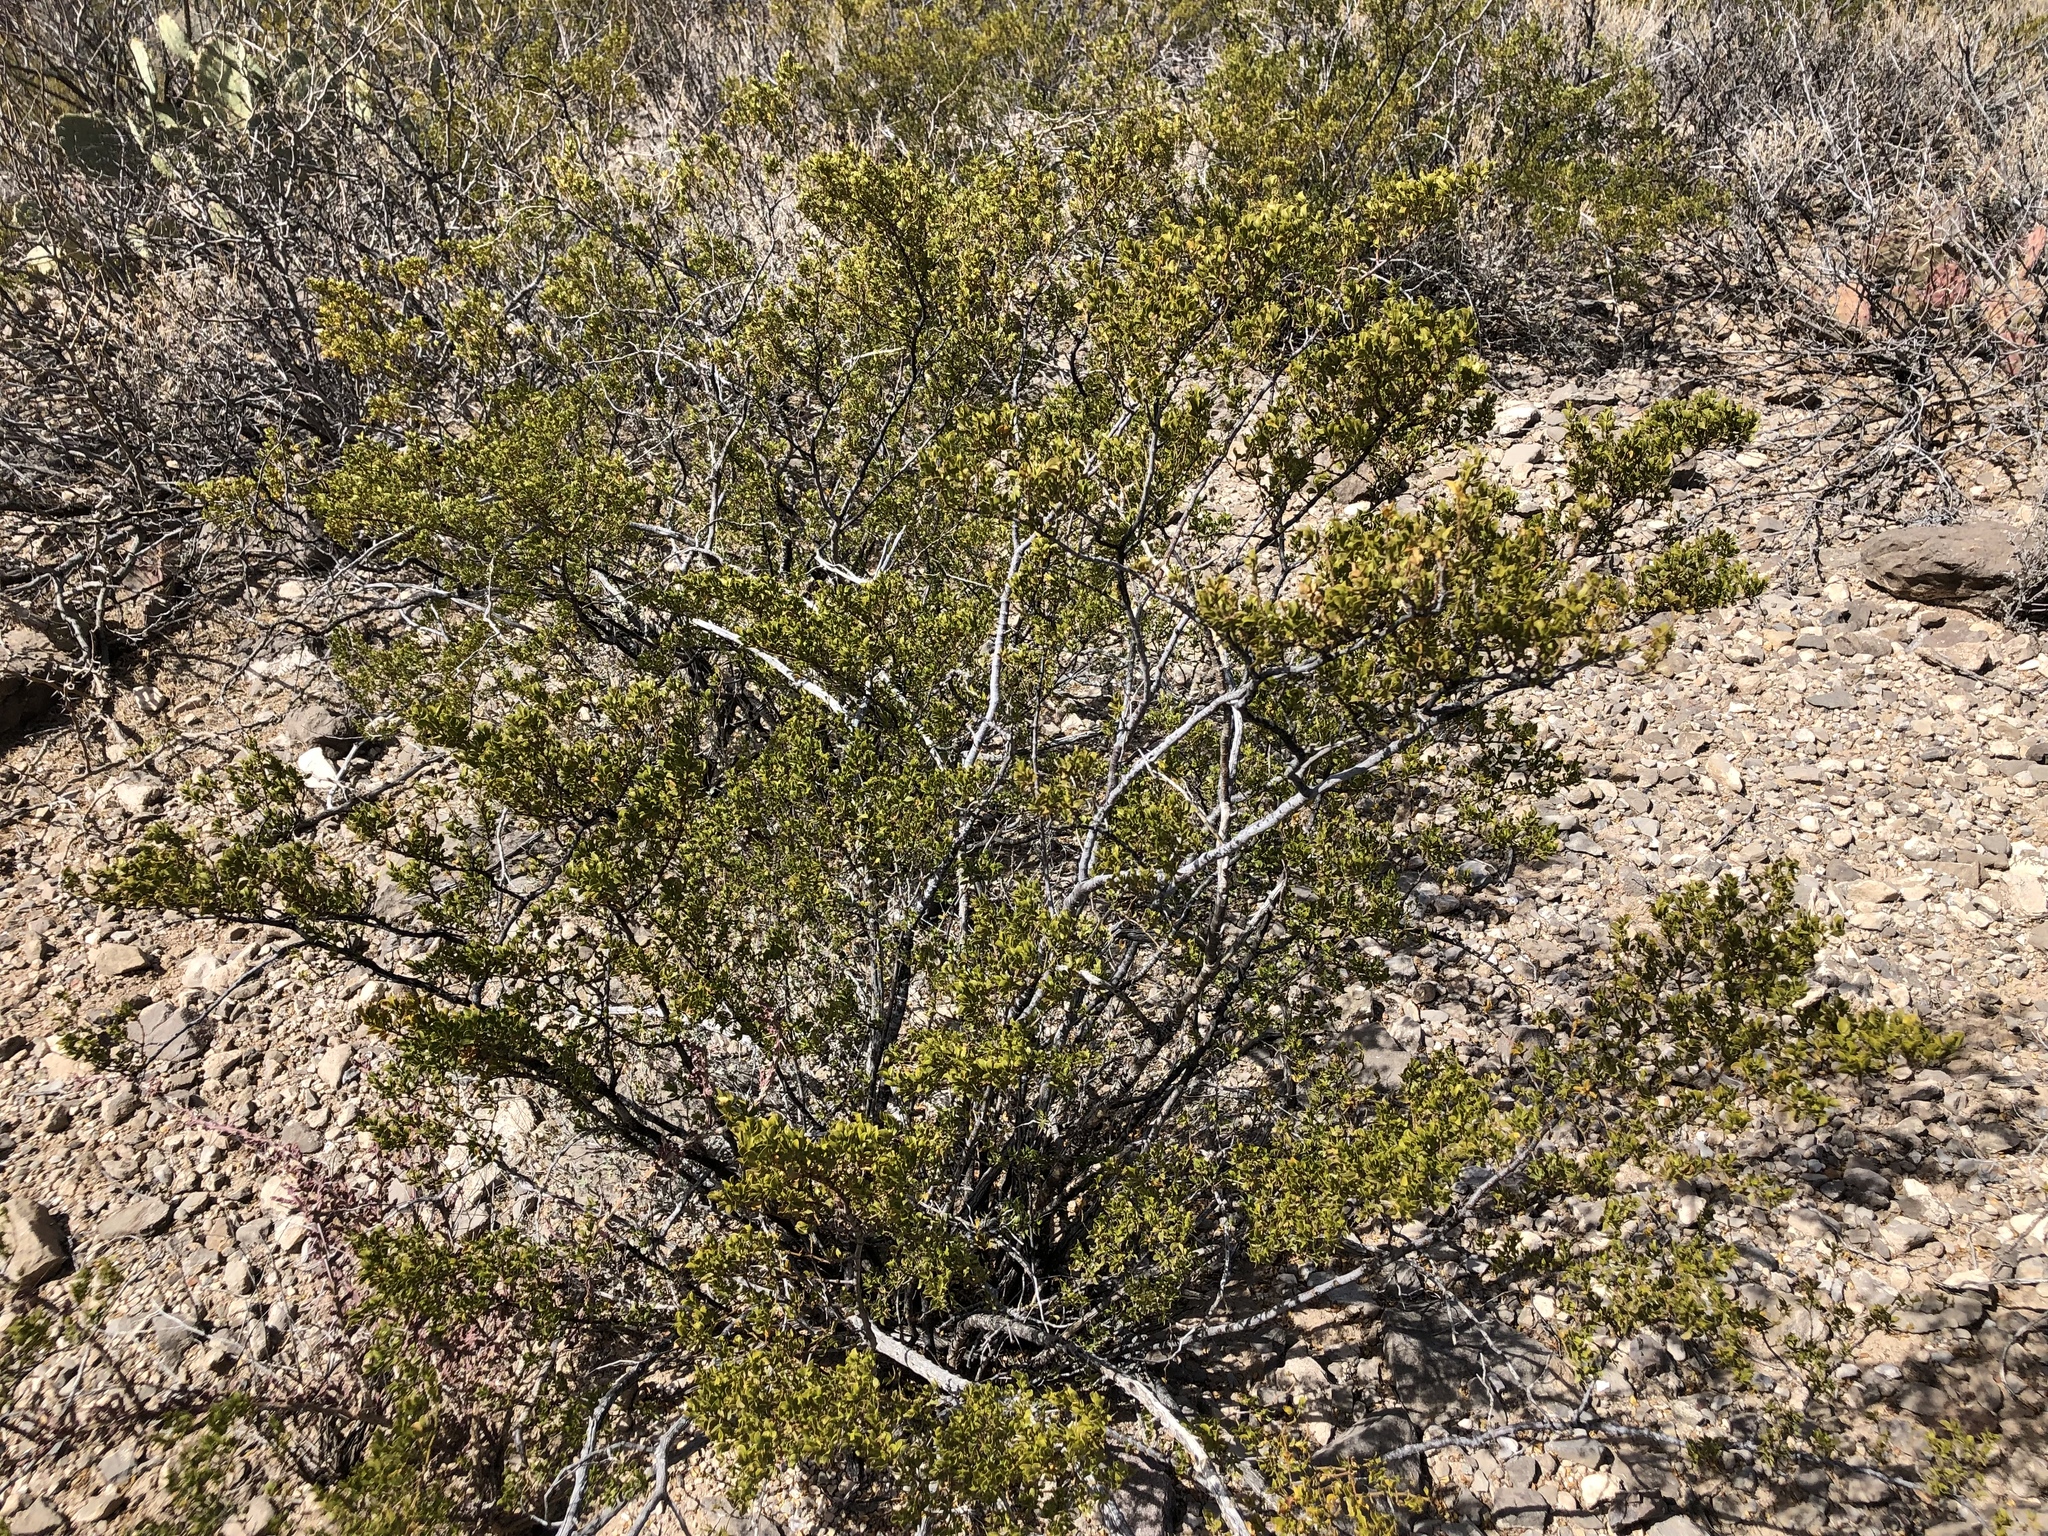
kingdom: Plantae
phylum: Tracheophyta
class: Magnoliopsida
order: Zygophyllales
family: Zygophyllaceae
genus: Larrea
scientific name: Larrea tridentata
